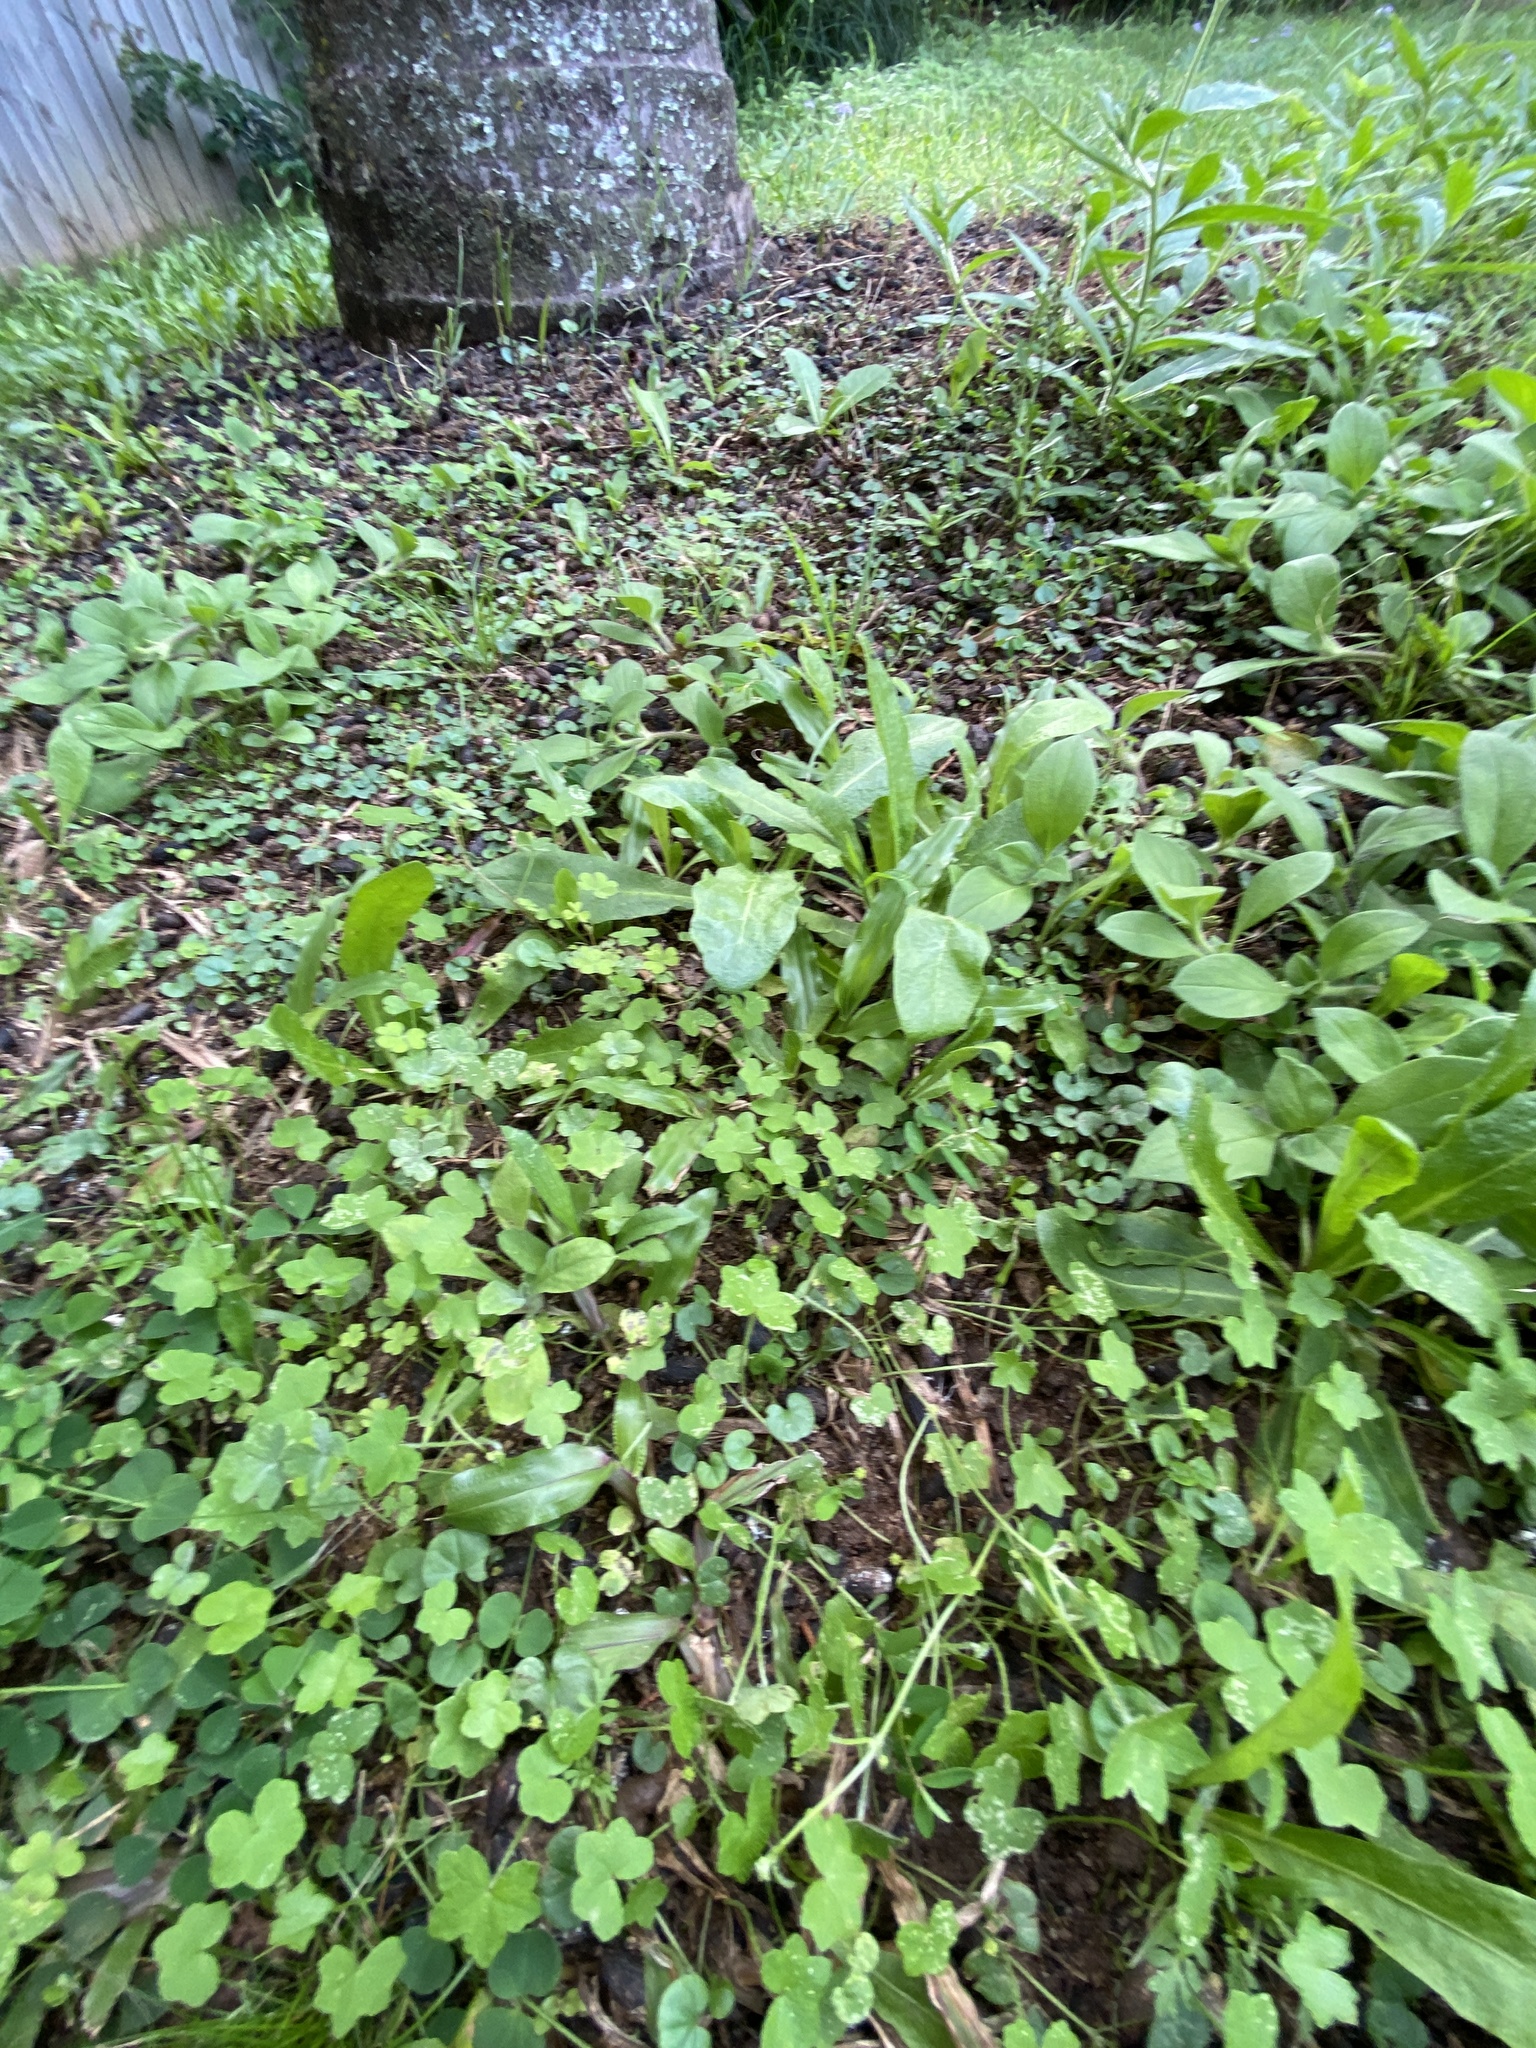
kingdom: Plantae
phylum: Tracheophyta
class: Magnoliopsida
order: Apiales
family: Araliaceae
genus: Hydrocotyle
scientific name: Hydrocotyle acutiloba
